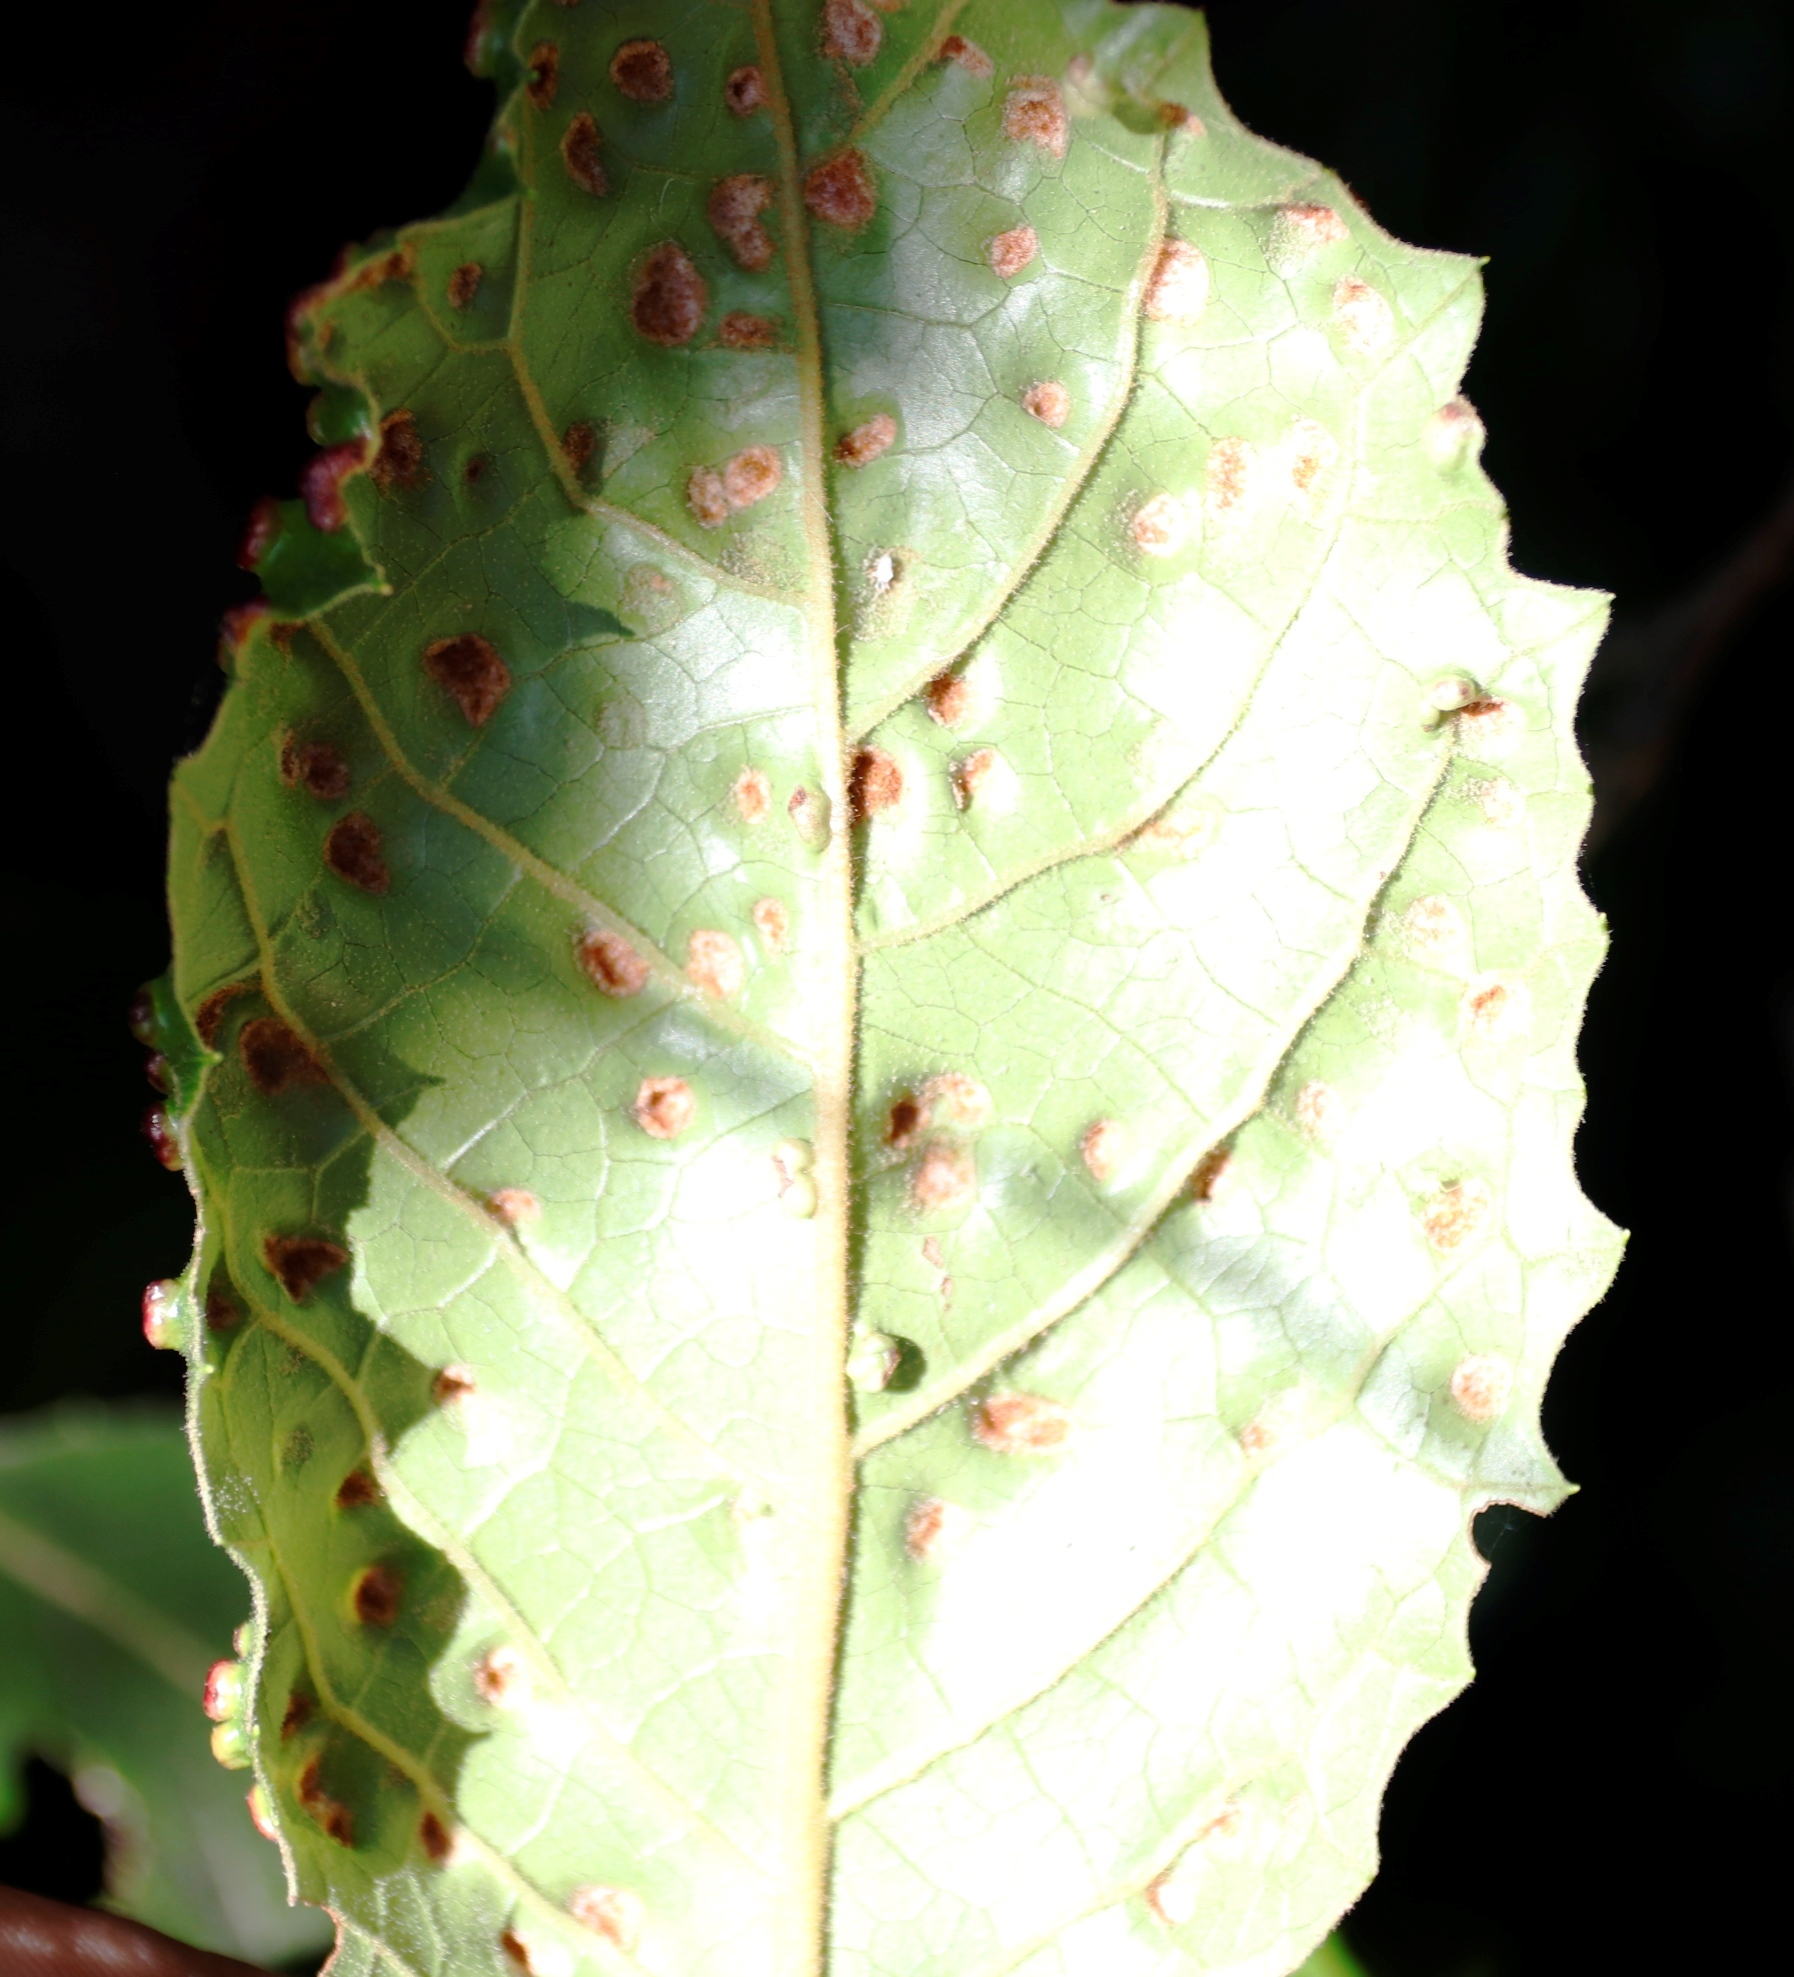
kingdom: Plantae
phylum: Tracheophyta
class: Magnoliopsida
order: Cornales
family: Curtisiaceae
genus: Curtisia
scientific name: Curtisia dentata
